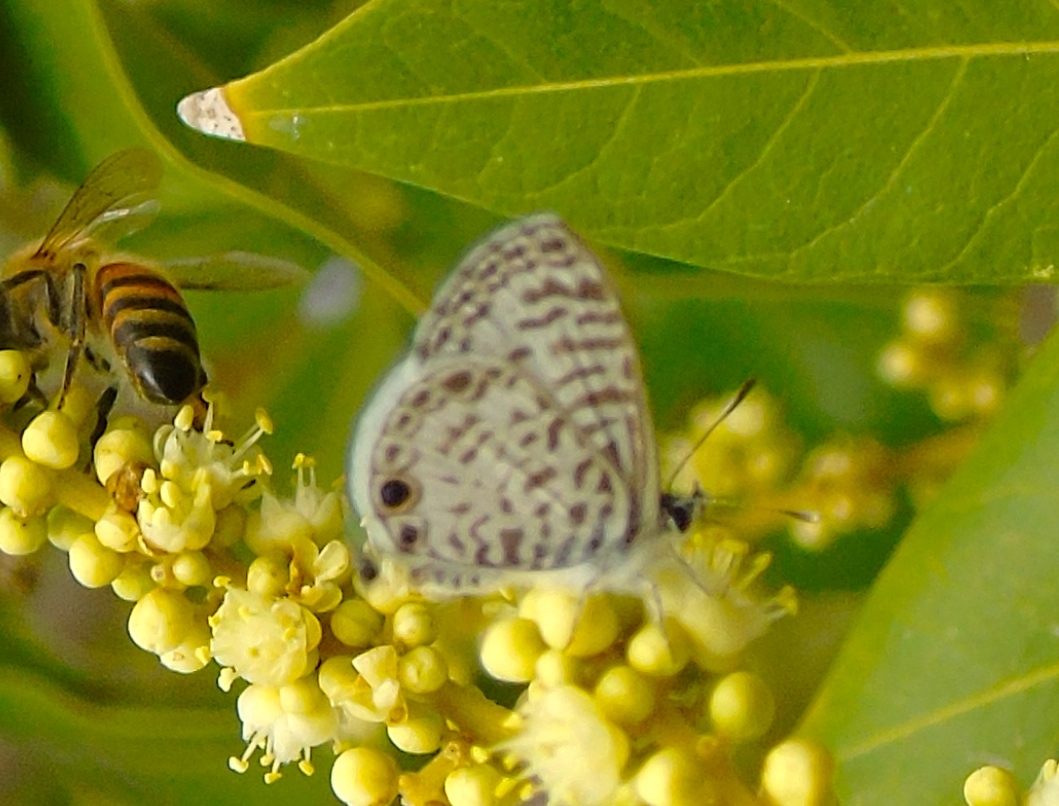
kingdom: Animalia
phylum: Arthropoda
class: Insecta
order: Lepidoptera
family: Lycaenidae
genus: Leptotes
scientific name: Leptotes cassius
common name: Cassius blue
